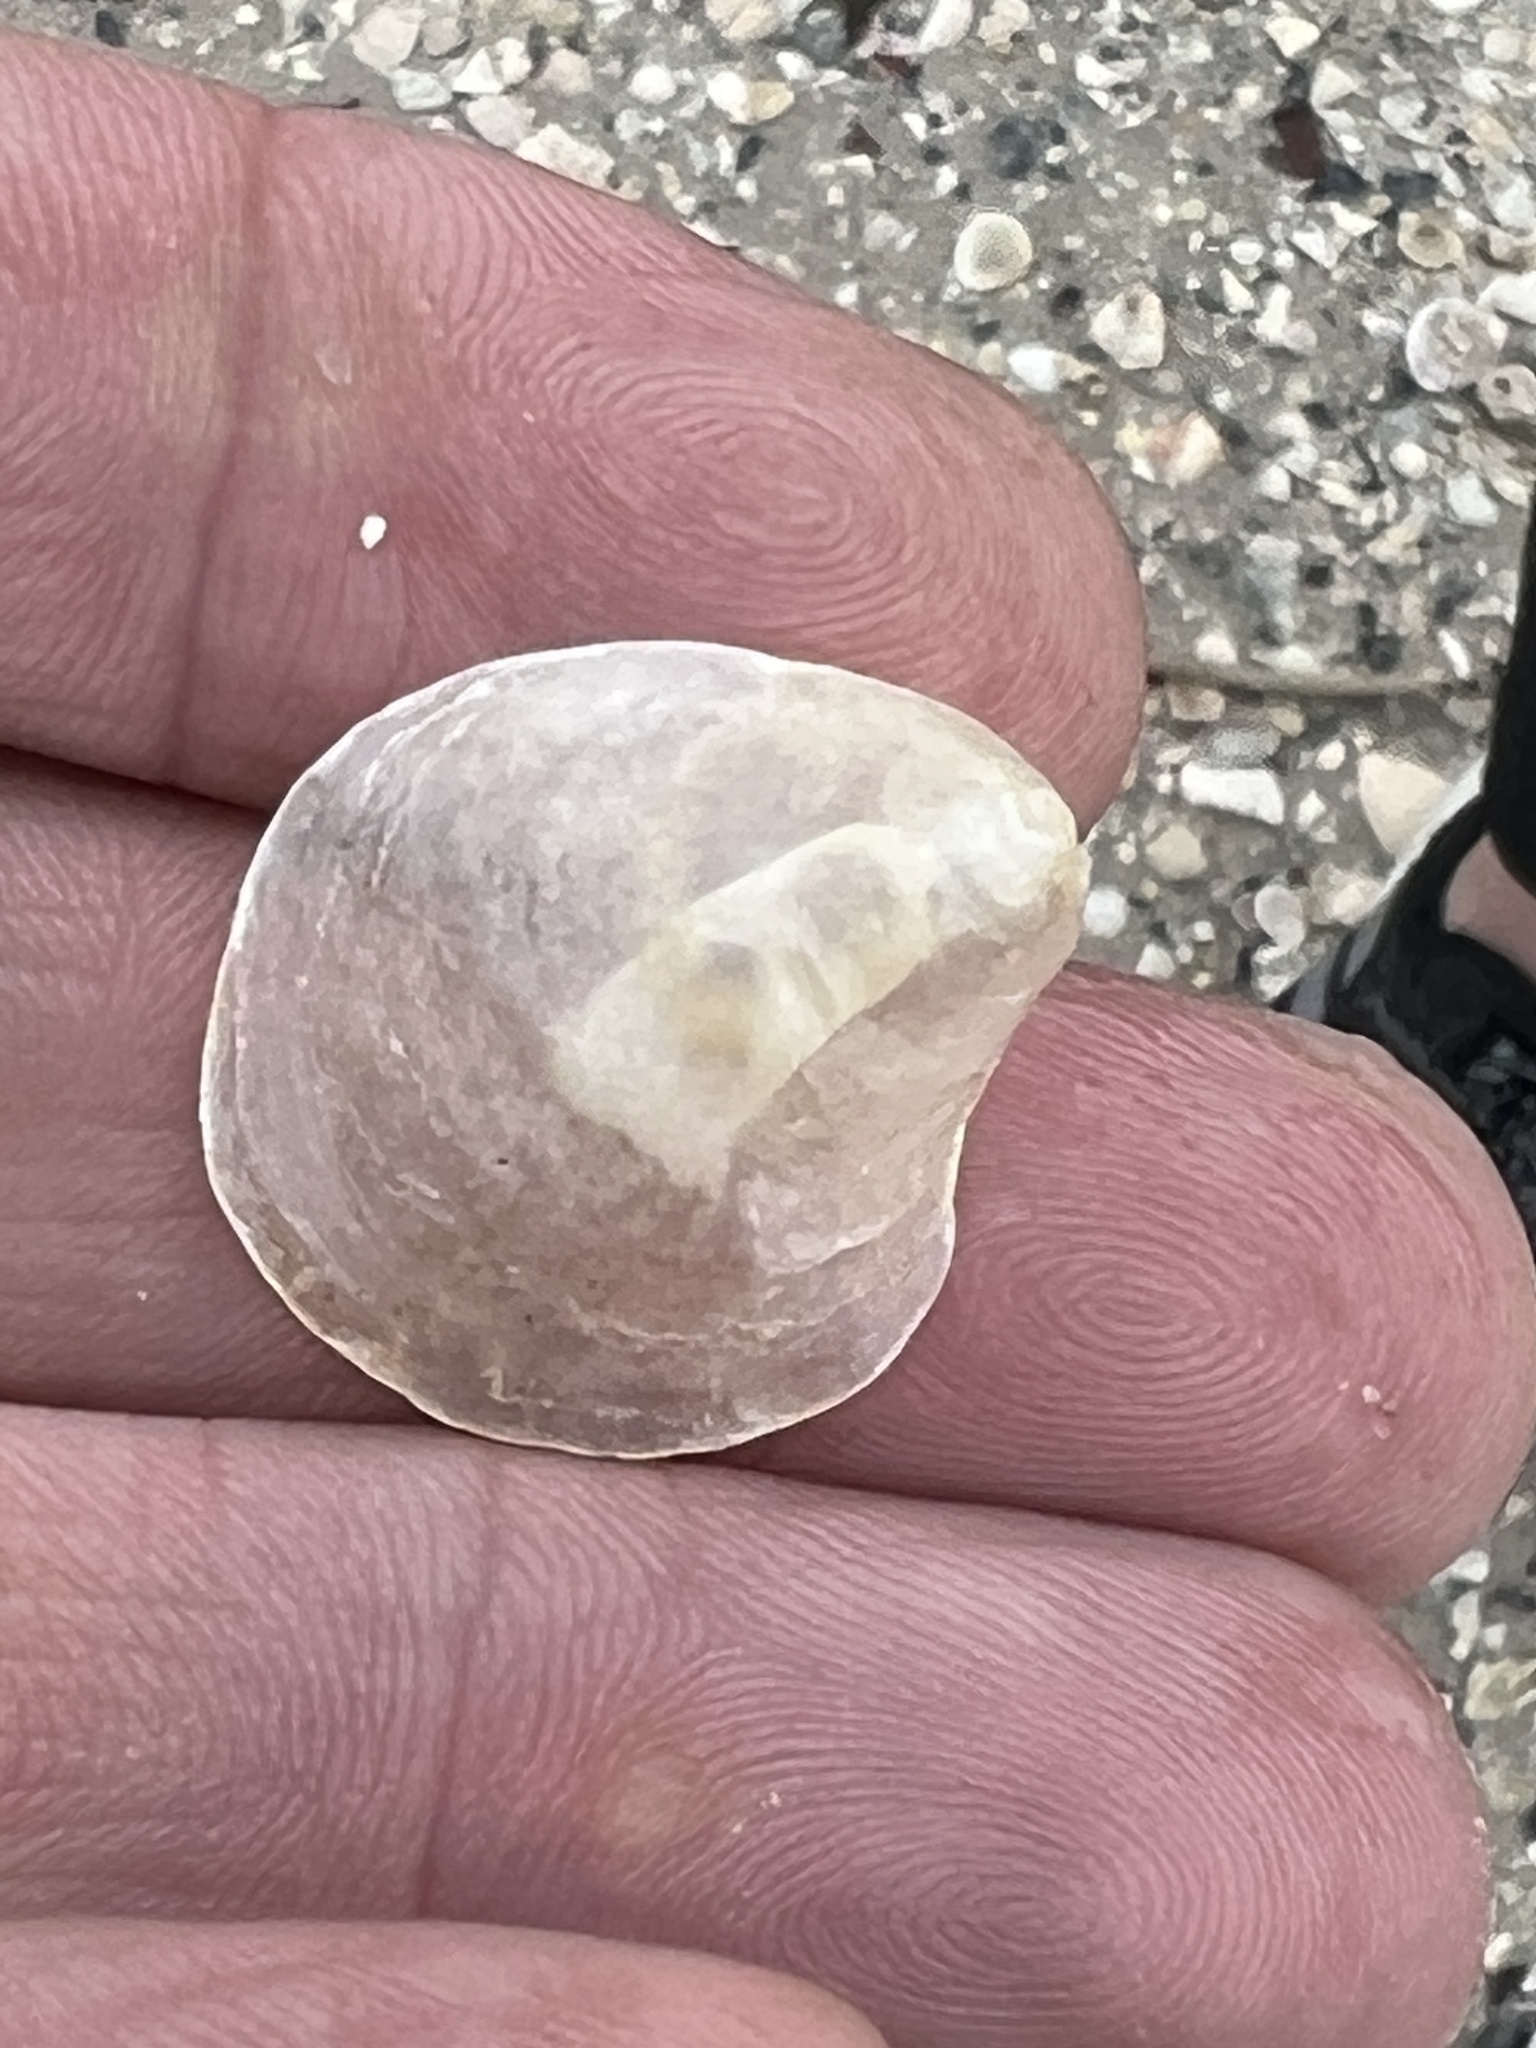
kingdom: Animalia
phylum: Mollusca
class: Bivalvia
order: Pectinida
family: Anomiidae
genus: Anomia
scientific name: Anomia simplex
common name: Common jingle shell
